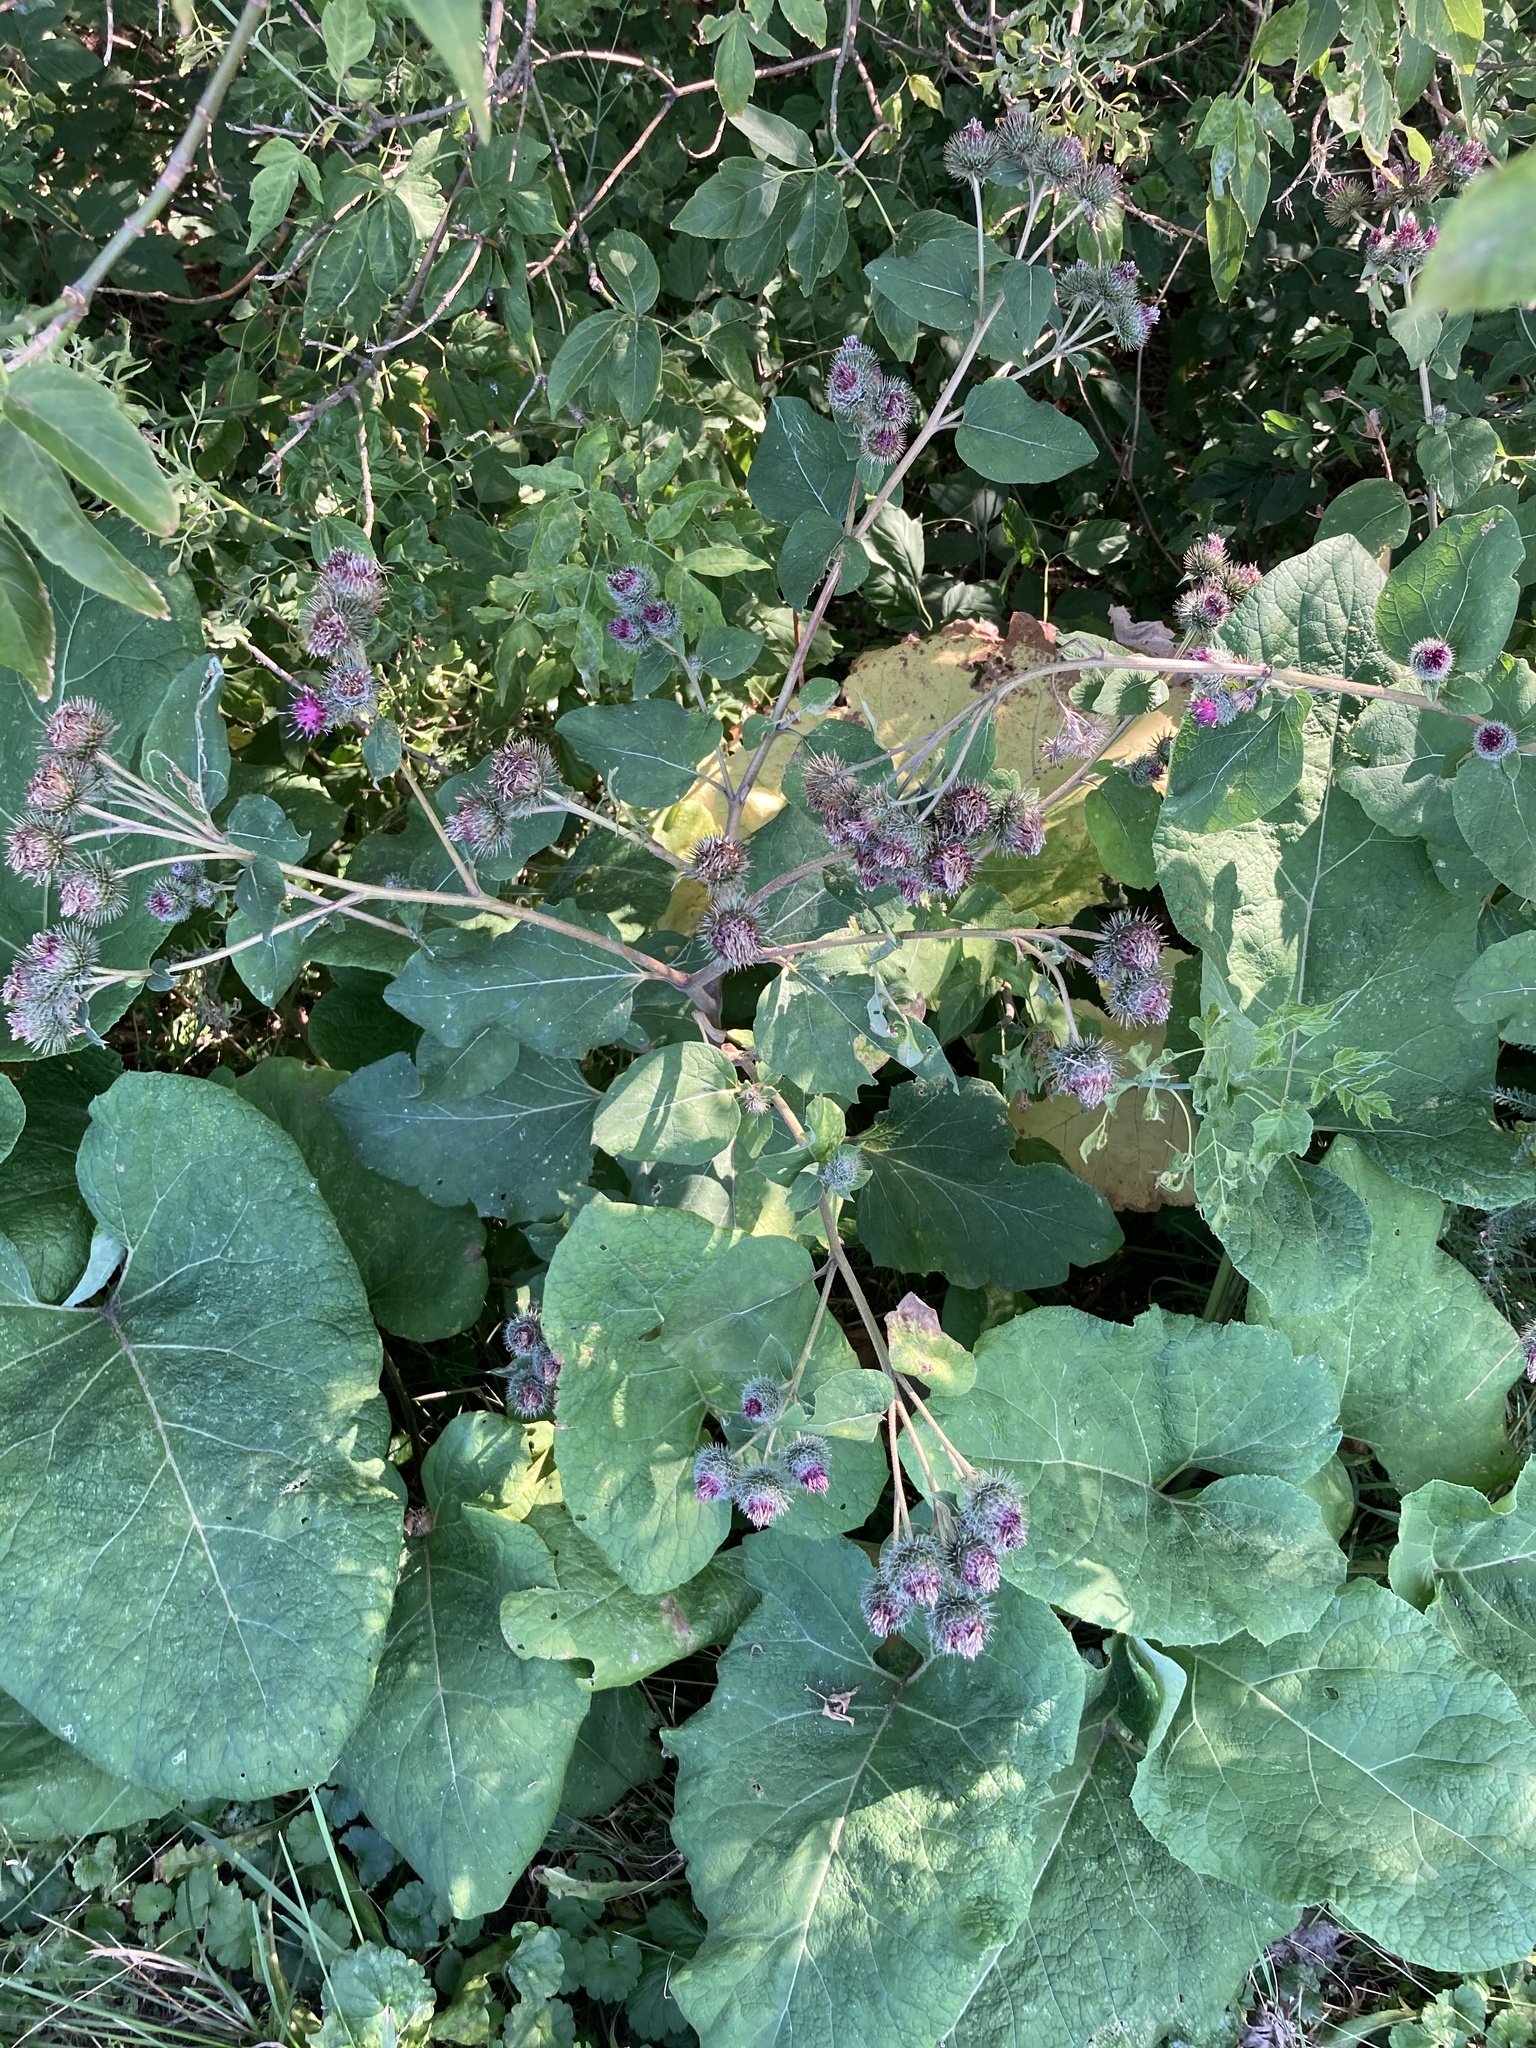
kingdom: Plantae
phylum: Tracheophyta
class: Magnoliopsida
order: Asterales
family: Asteraceae
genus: Arctium
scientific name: Arctium tomentosum
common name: Woolly burdock
